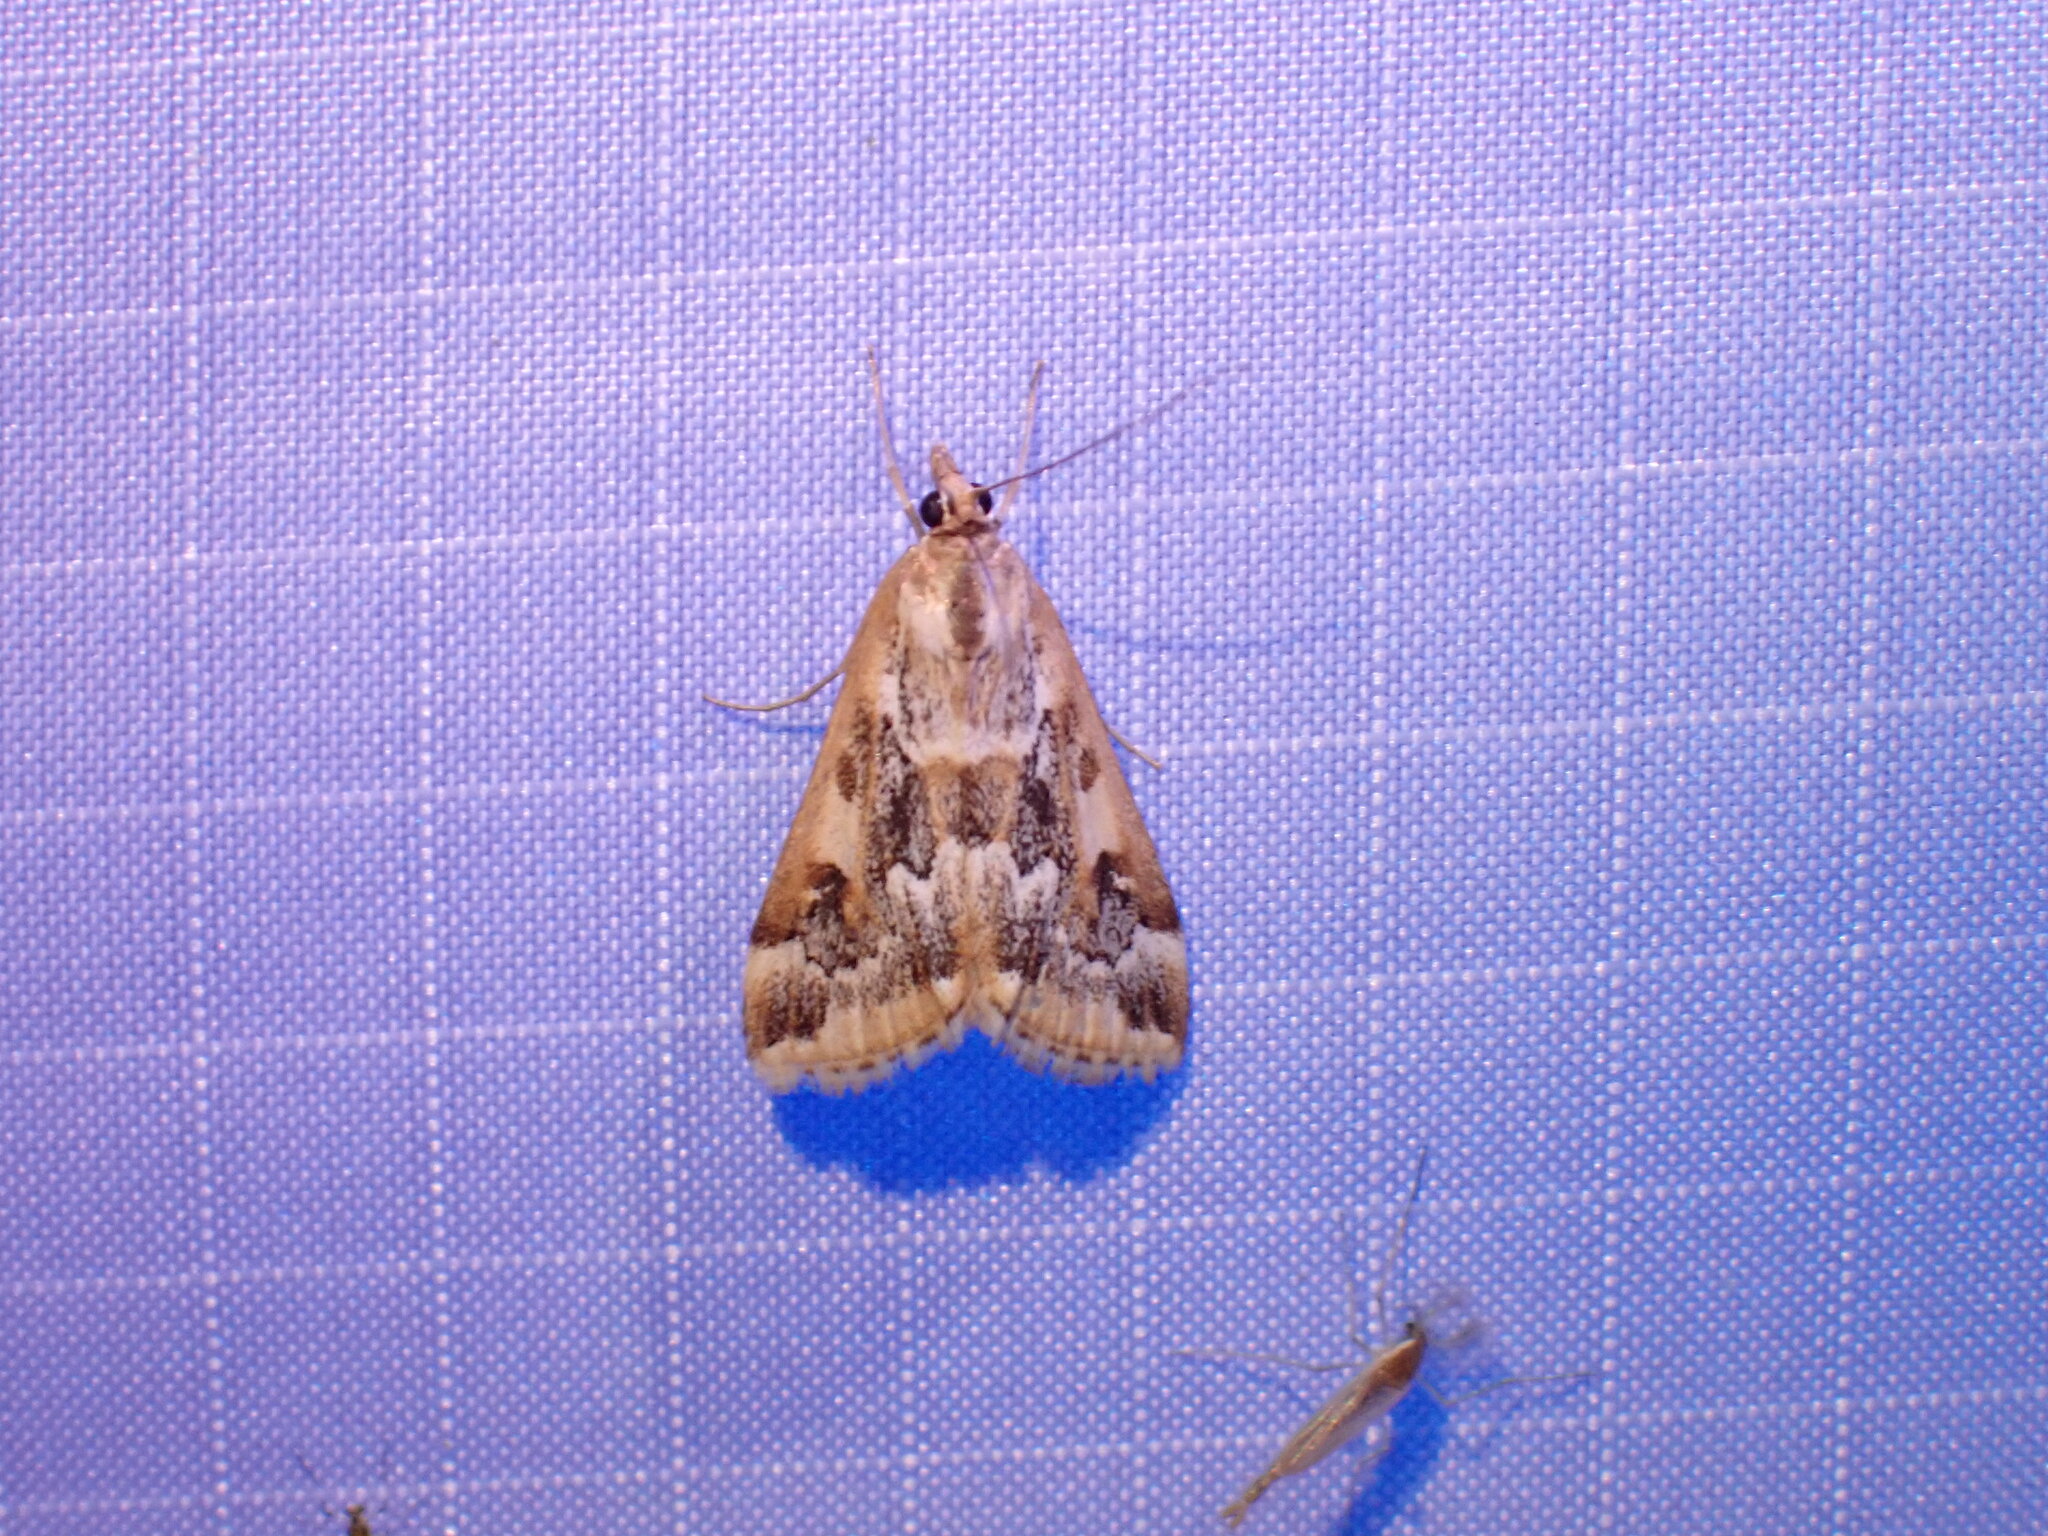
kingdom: Animalia
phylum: Arthropoda
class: Insecta
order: Lepidoptera
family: Crambidae
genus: Loxostege
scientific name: Loxostege lepidalis
